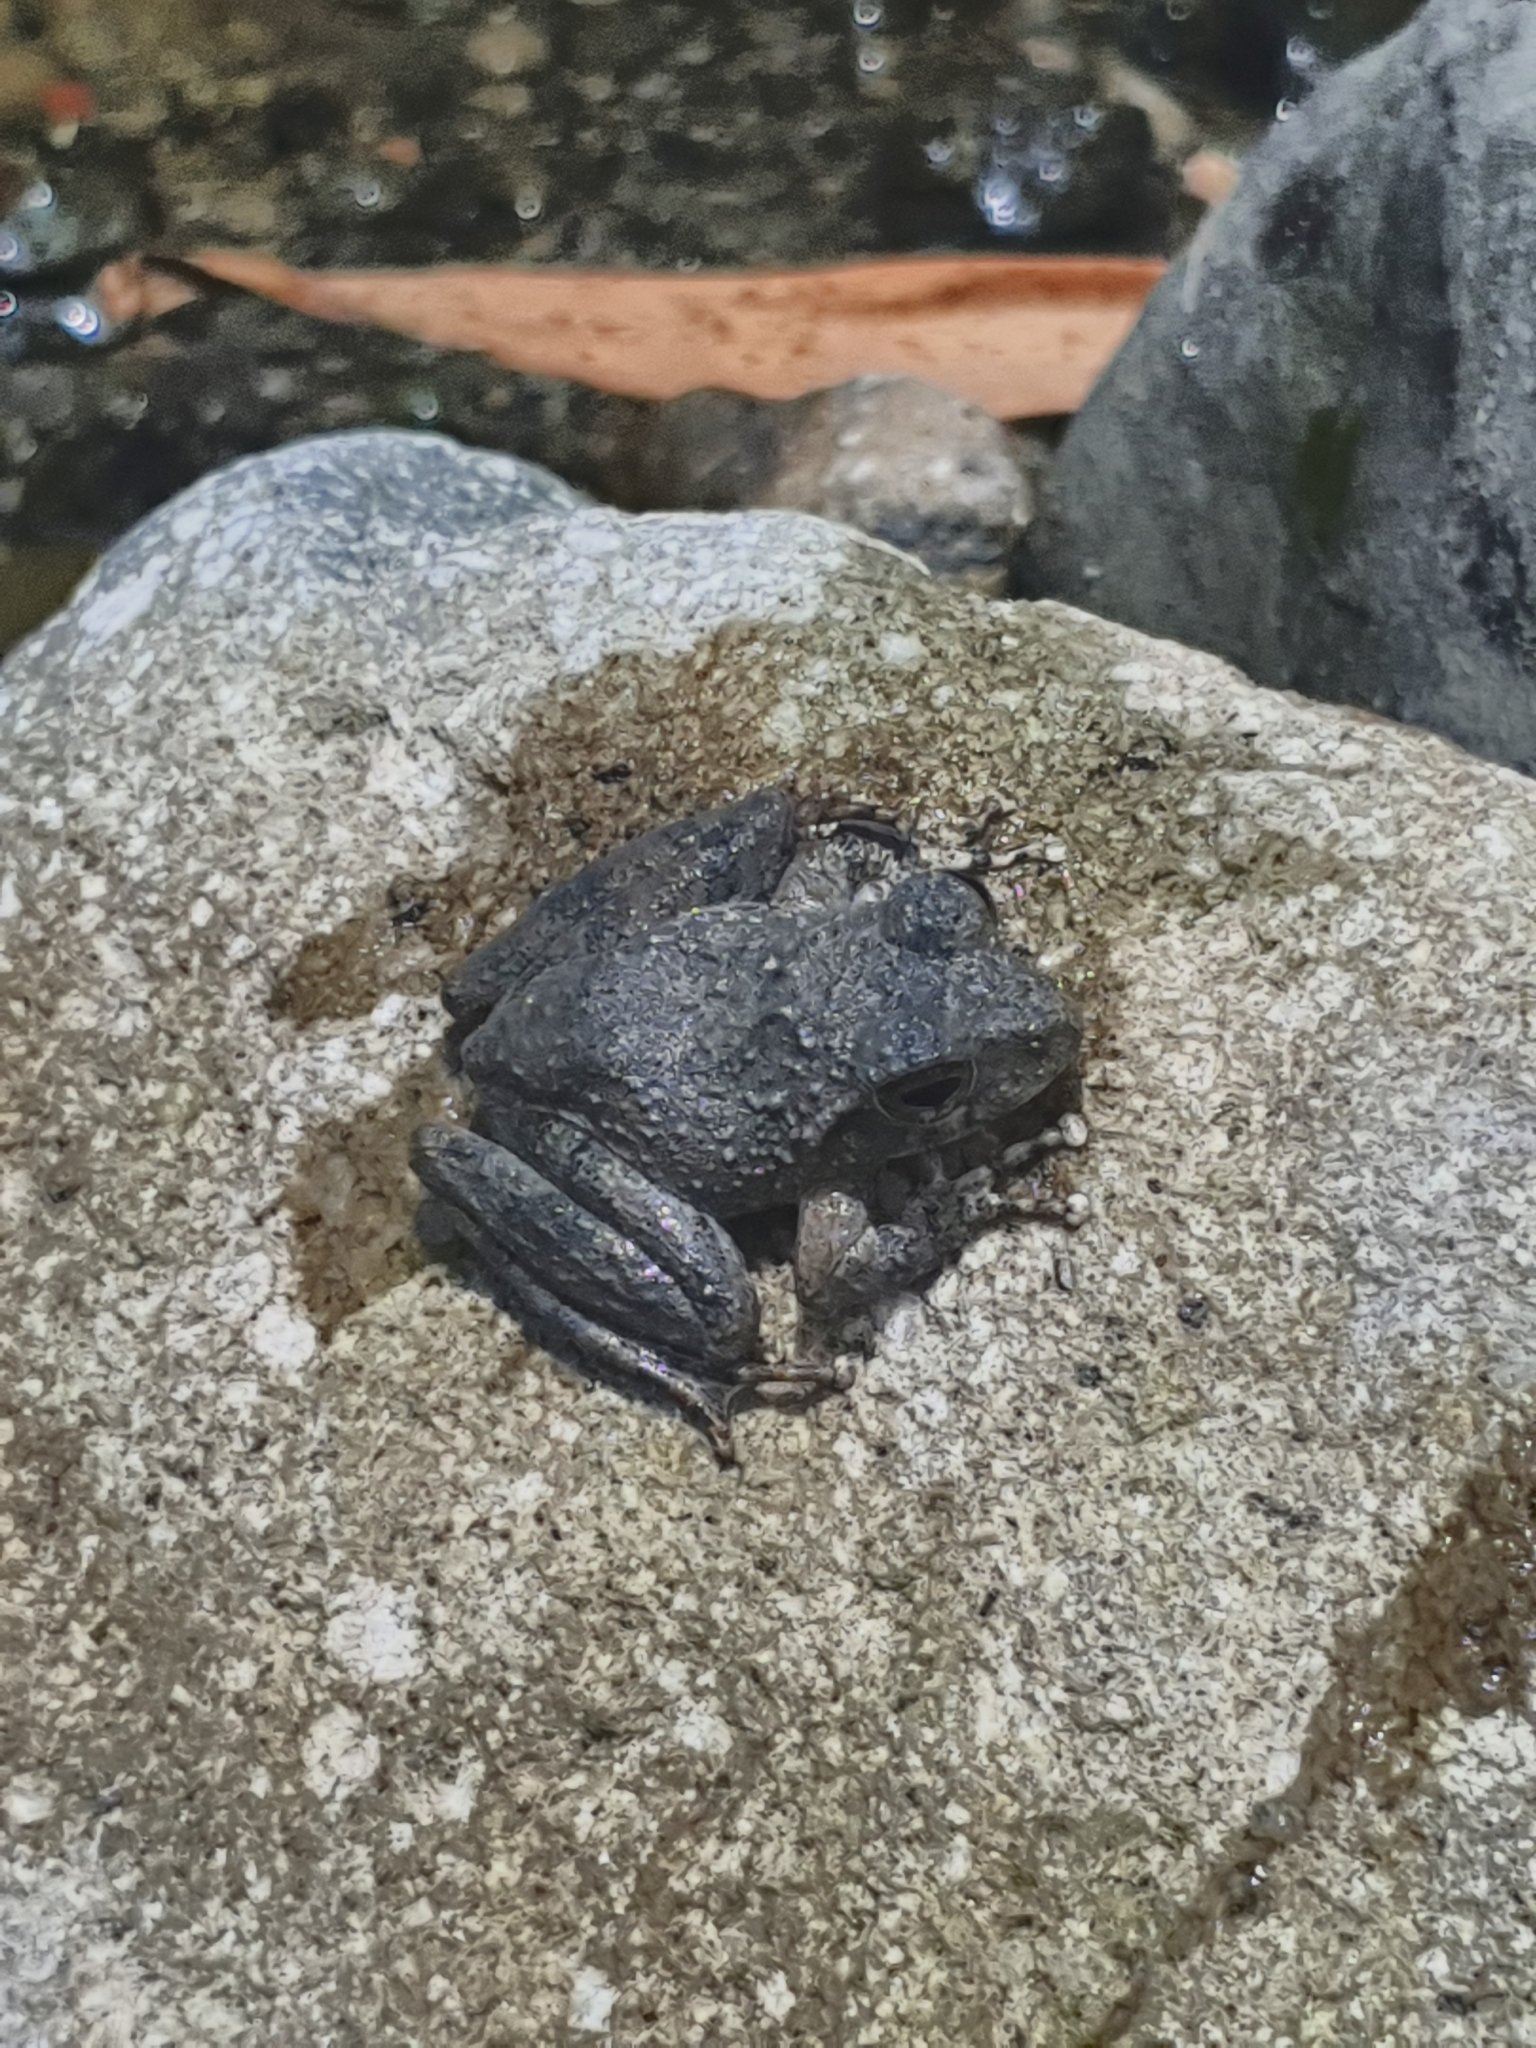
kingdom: Animalia
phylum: Chordata
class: Amphibia
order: Anura
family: Rhacophoridae
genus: Buergeria
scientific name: Buergeria otai
